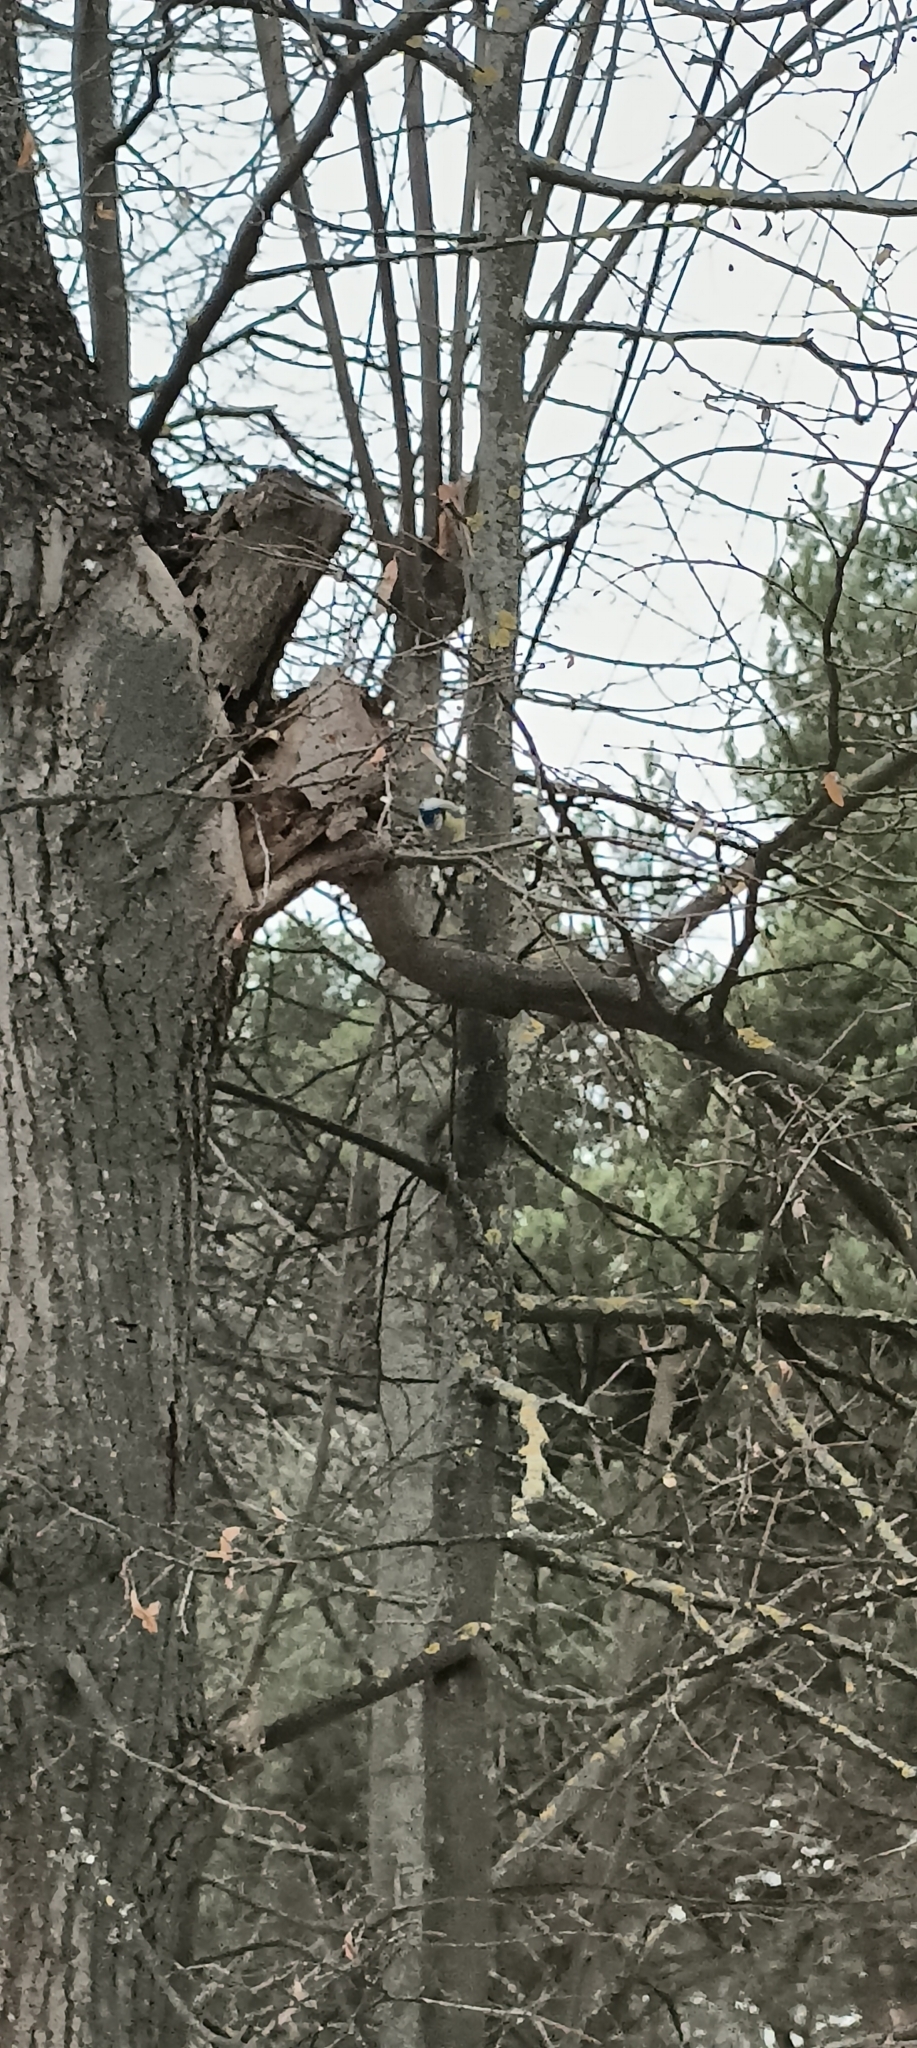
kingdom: Animalia
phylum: Chordata
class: Aves
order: Passeriformes
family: Paridae
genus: Cyanistes
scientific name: Cyanistes caeruleus
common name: Eurasian blue tit
